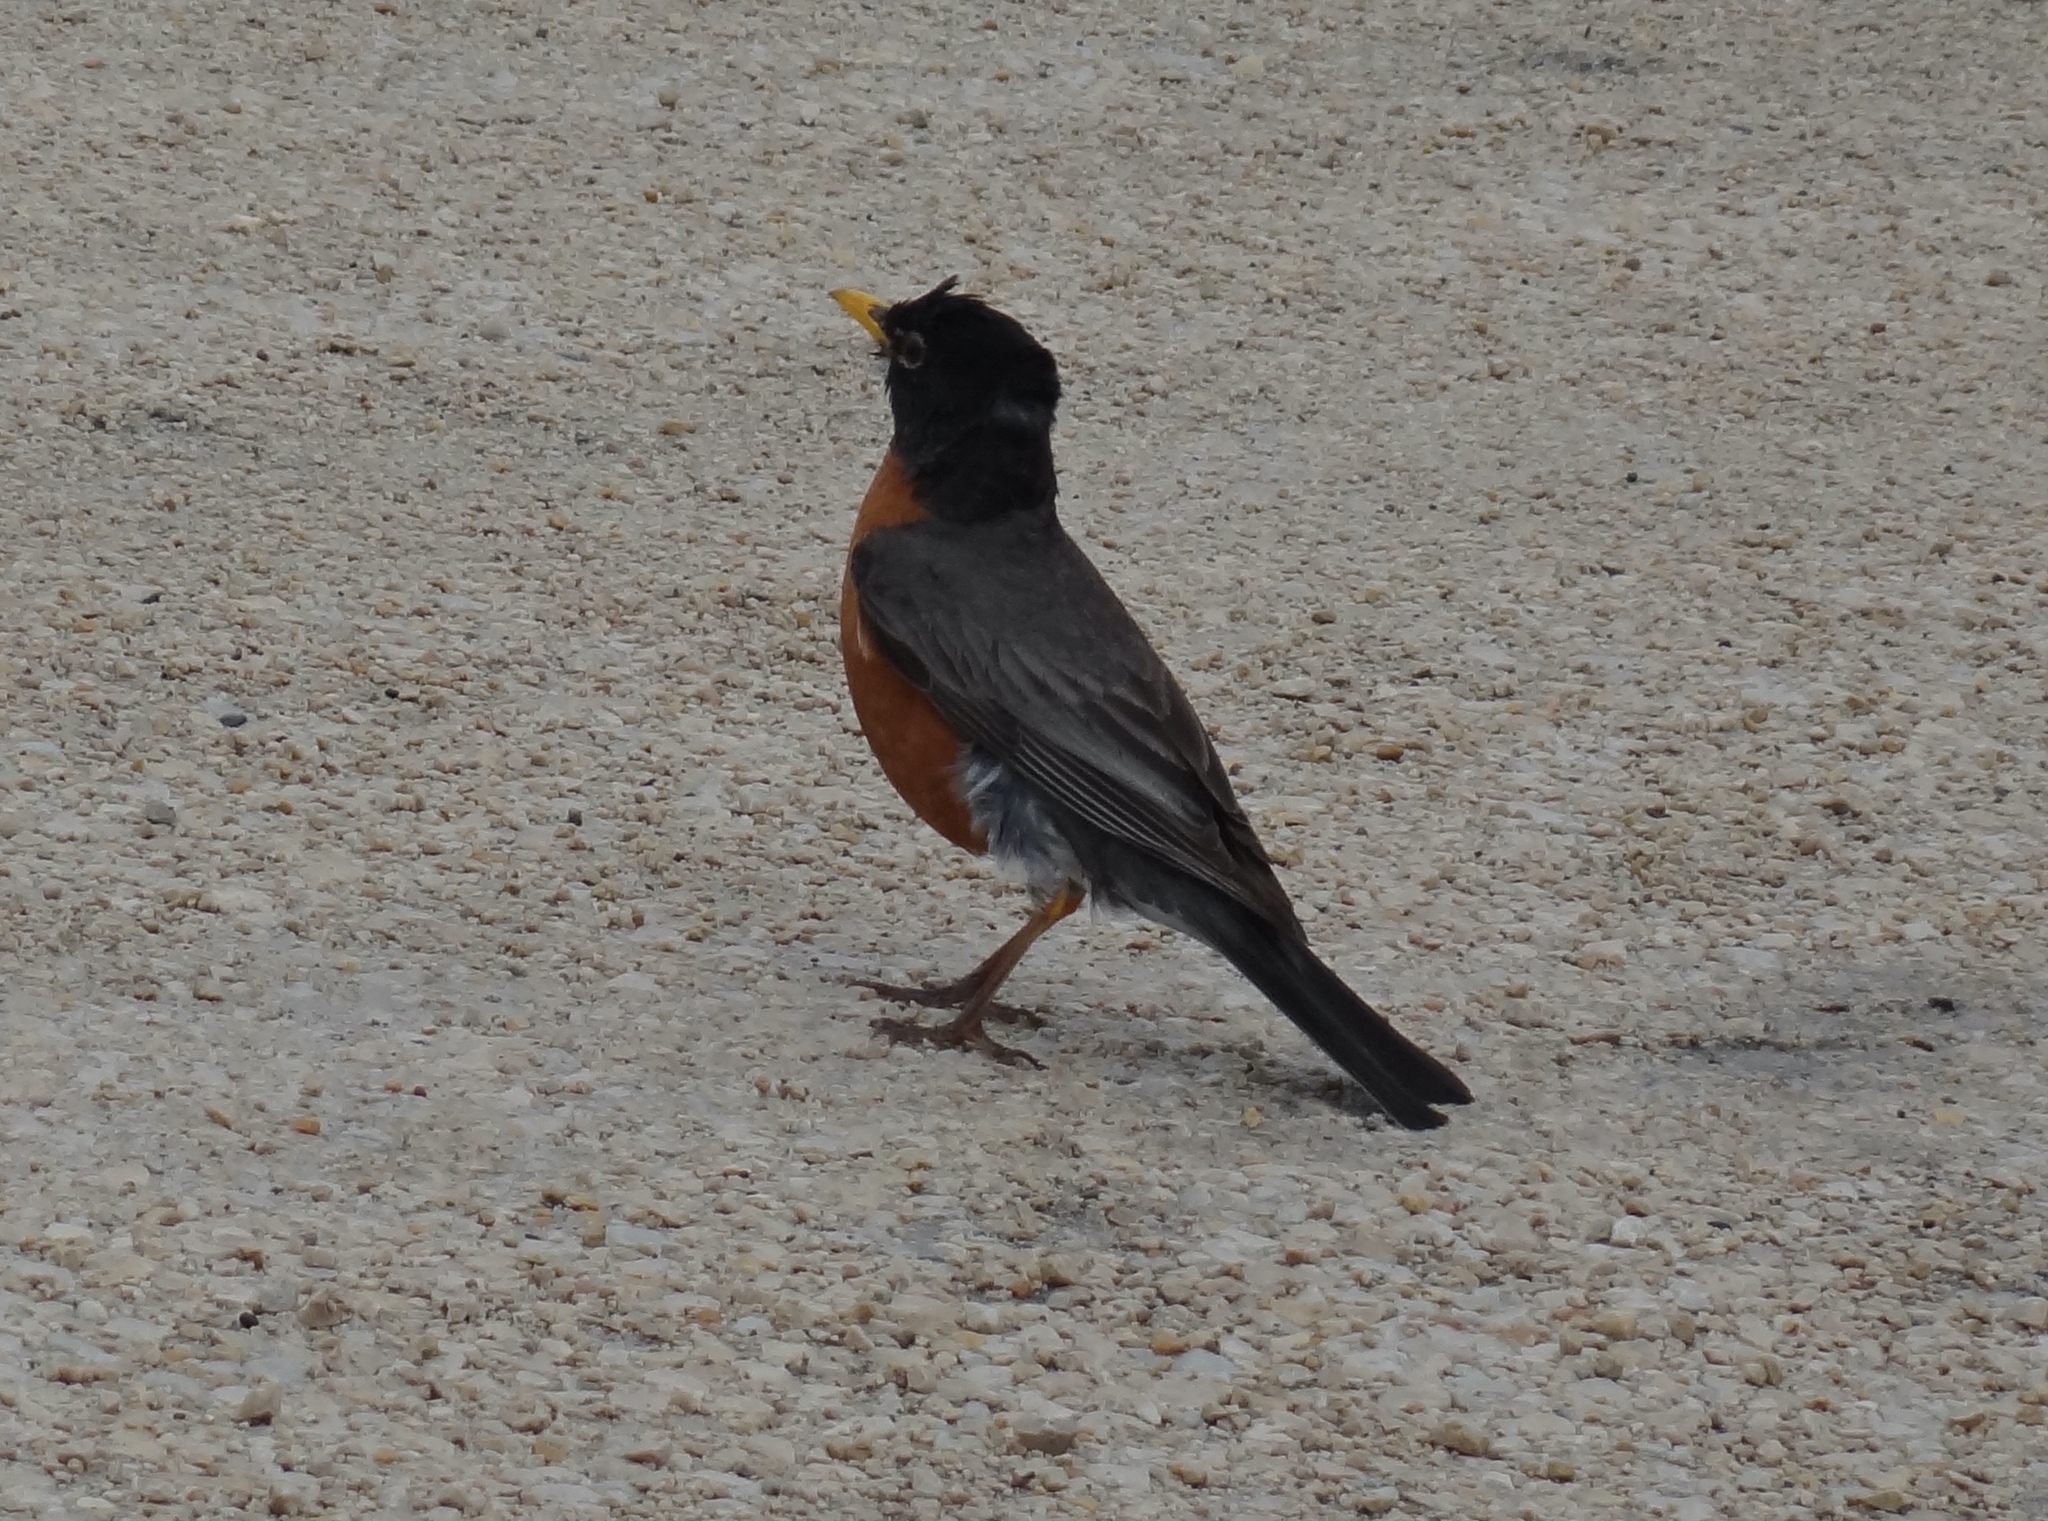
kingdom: Animalia
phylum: Chordata
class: Aves
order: Passeriformes
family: Turdidae
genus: Turdus
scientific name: Turdus migratorius
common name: American robin
